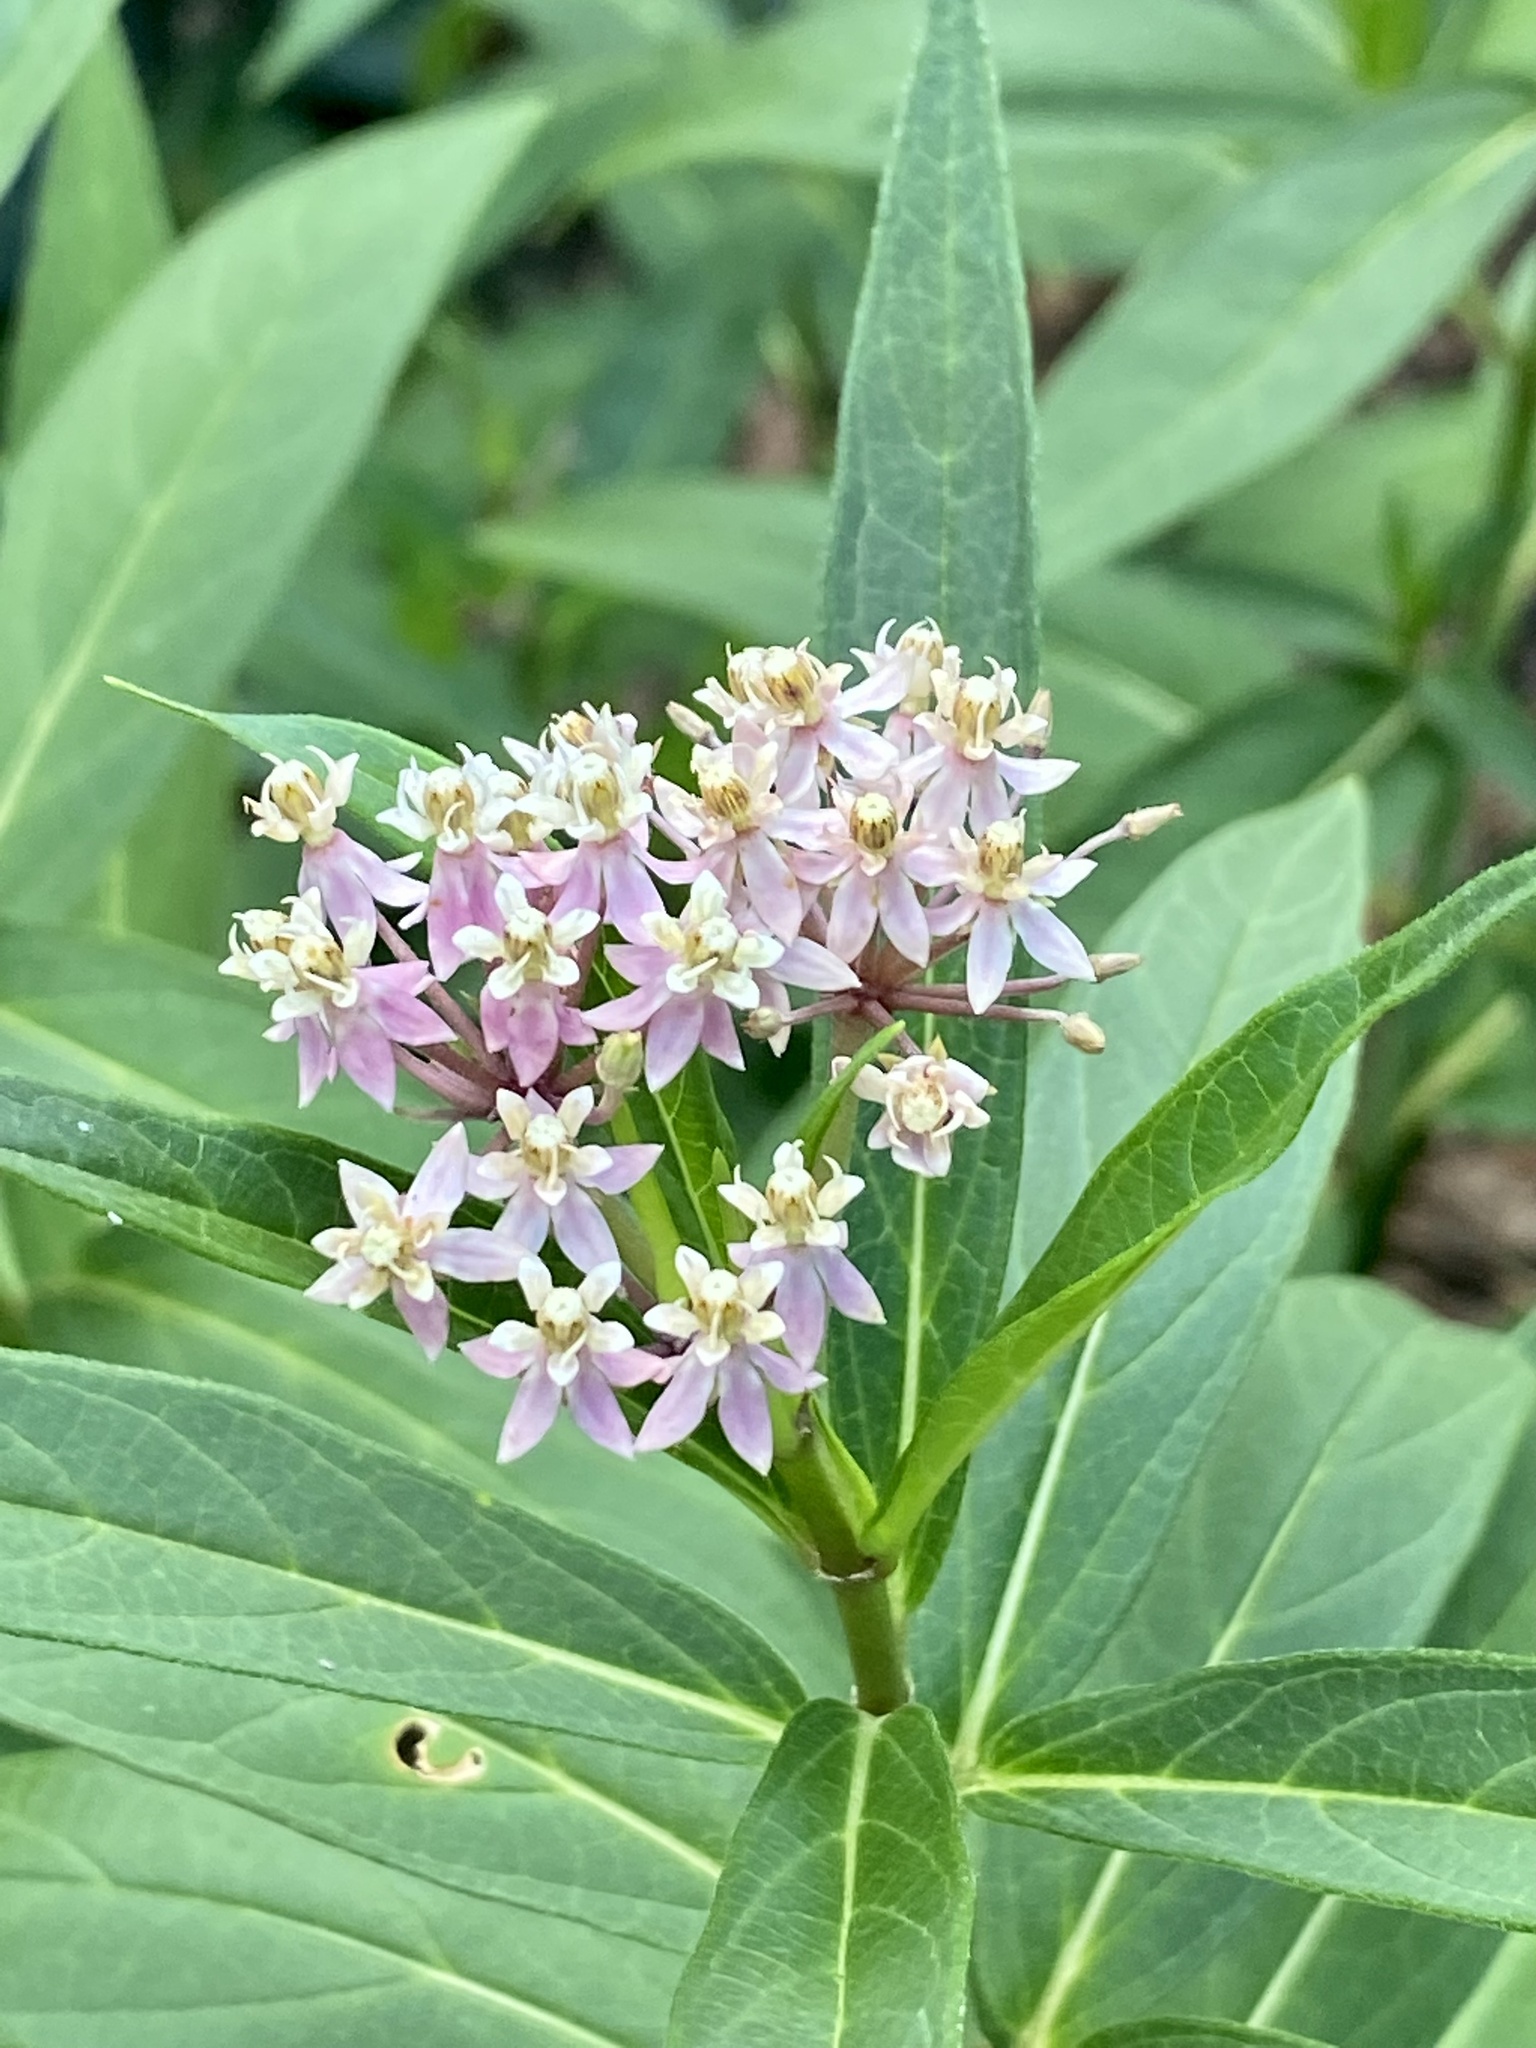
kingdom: Plantae
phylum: Tracheophyta
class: Magnoliopsida
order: Gentianales
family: Apocynaceae
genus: Asclepias
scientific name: Asclepias incarnata
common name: Swamp milkweed
